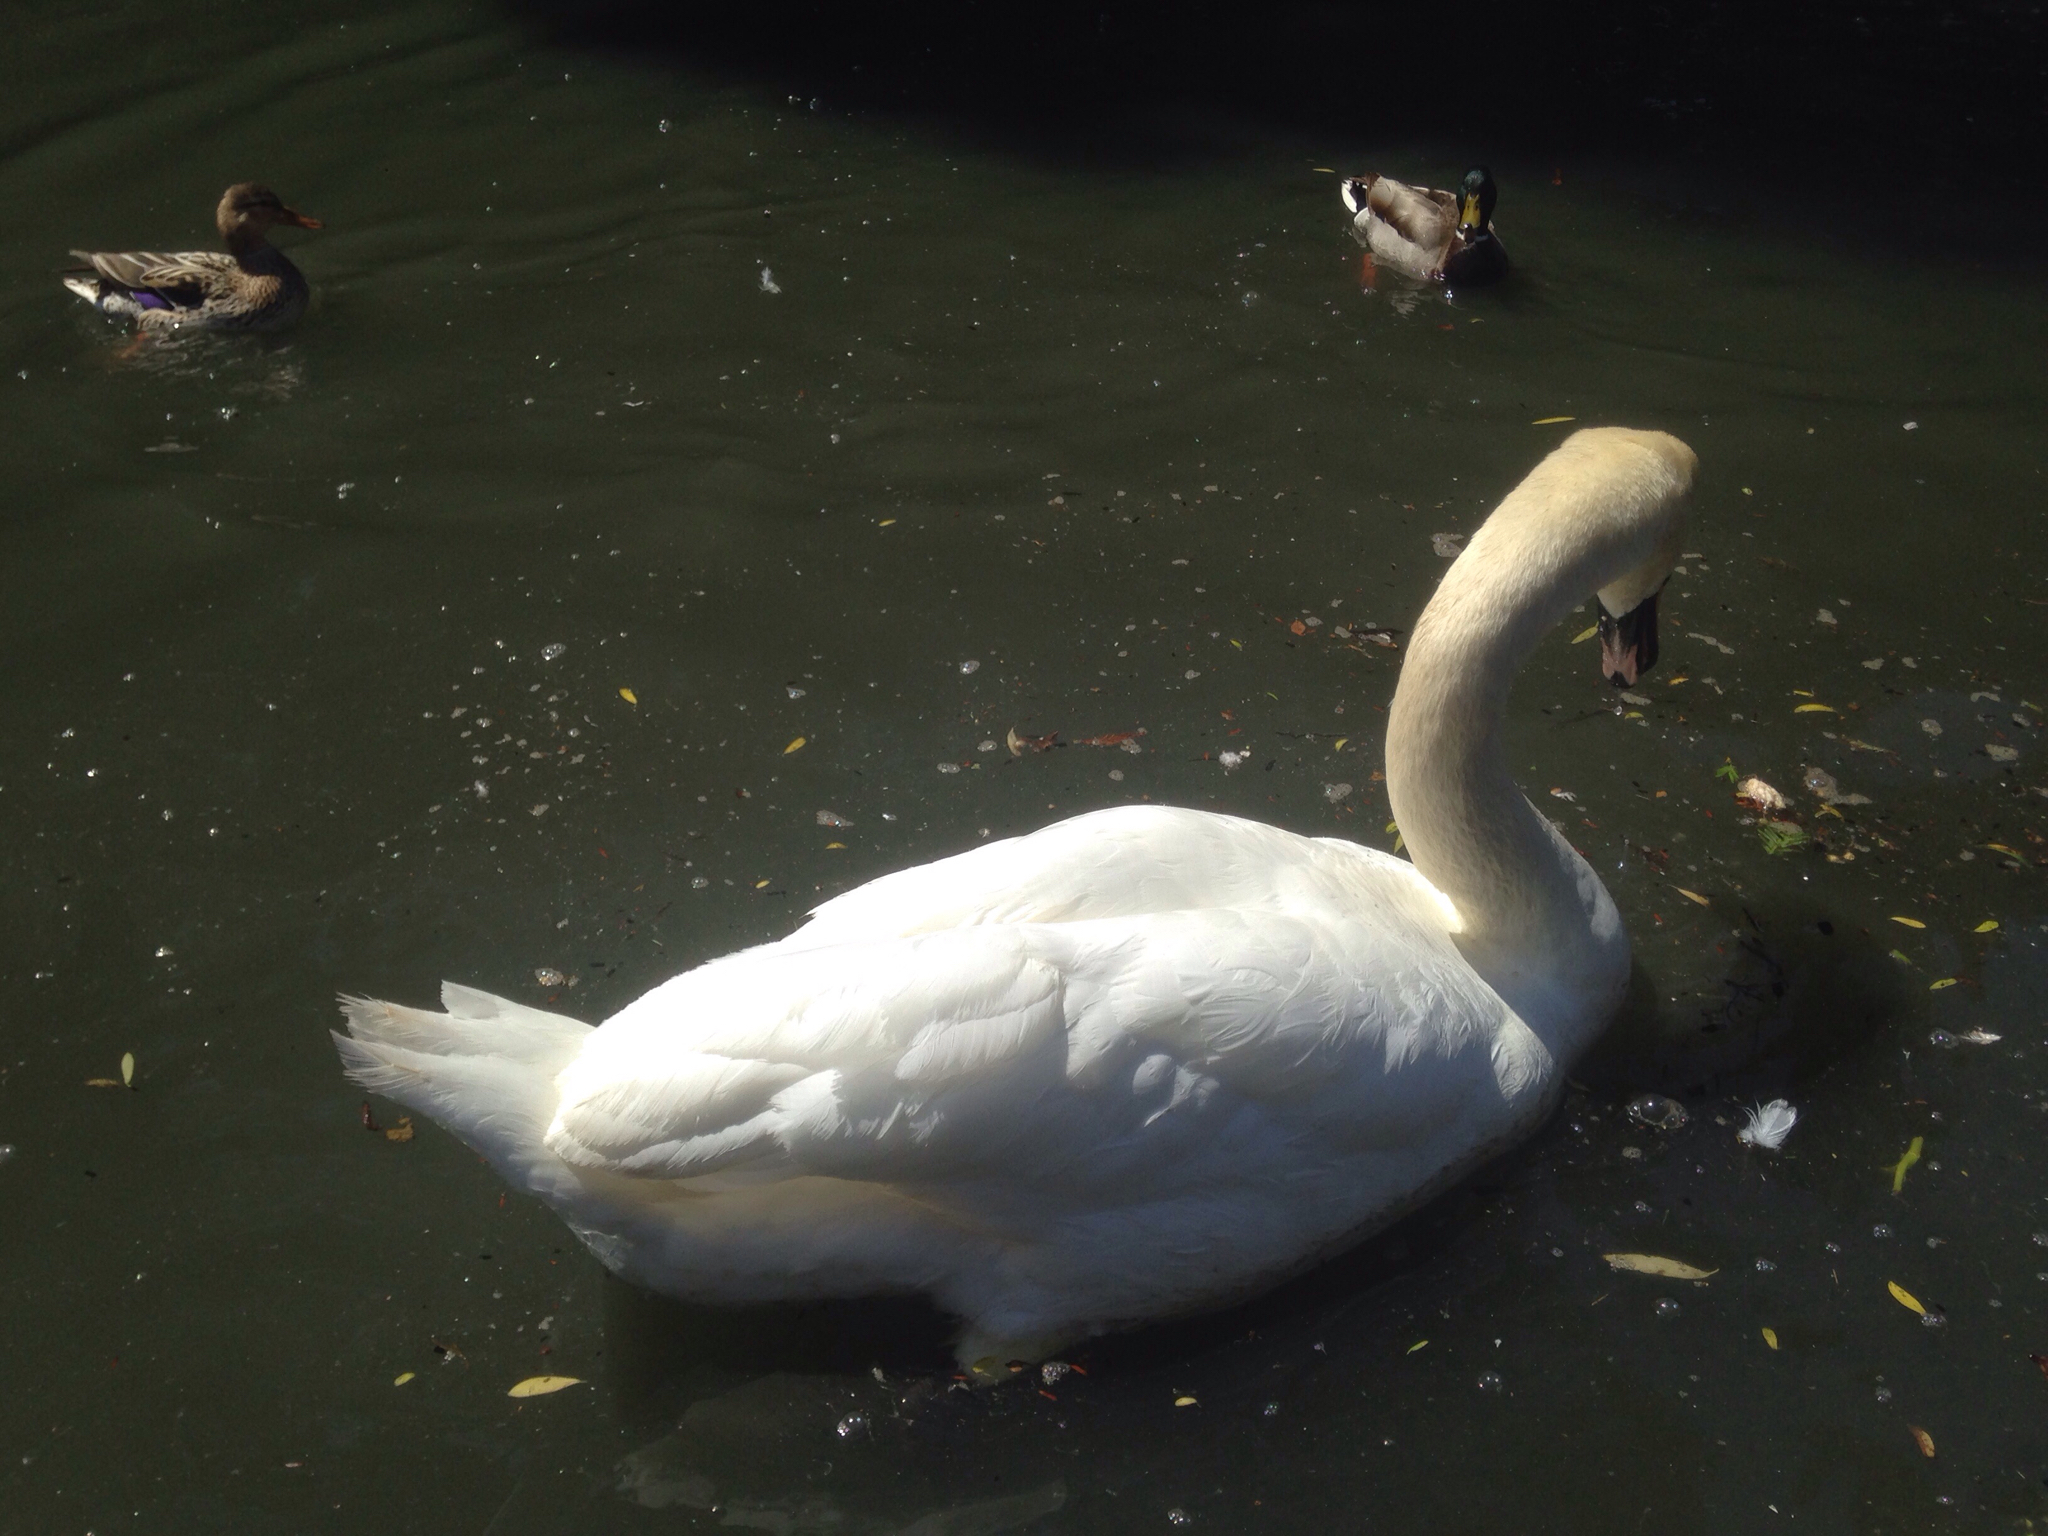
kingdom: Animalia
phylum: Chordata
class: Aves
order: Anseriformes
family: Anatidae
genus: Cygnus
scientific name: Cygnus olor
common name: Mute swan
